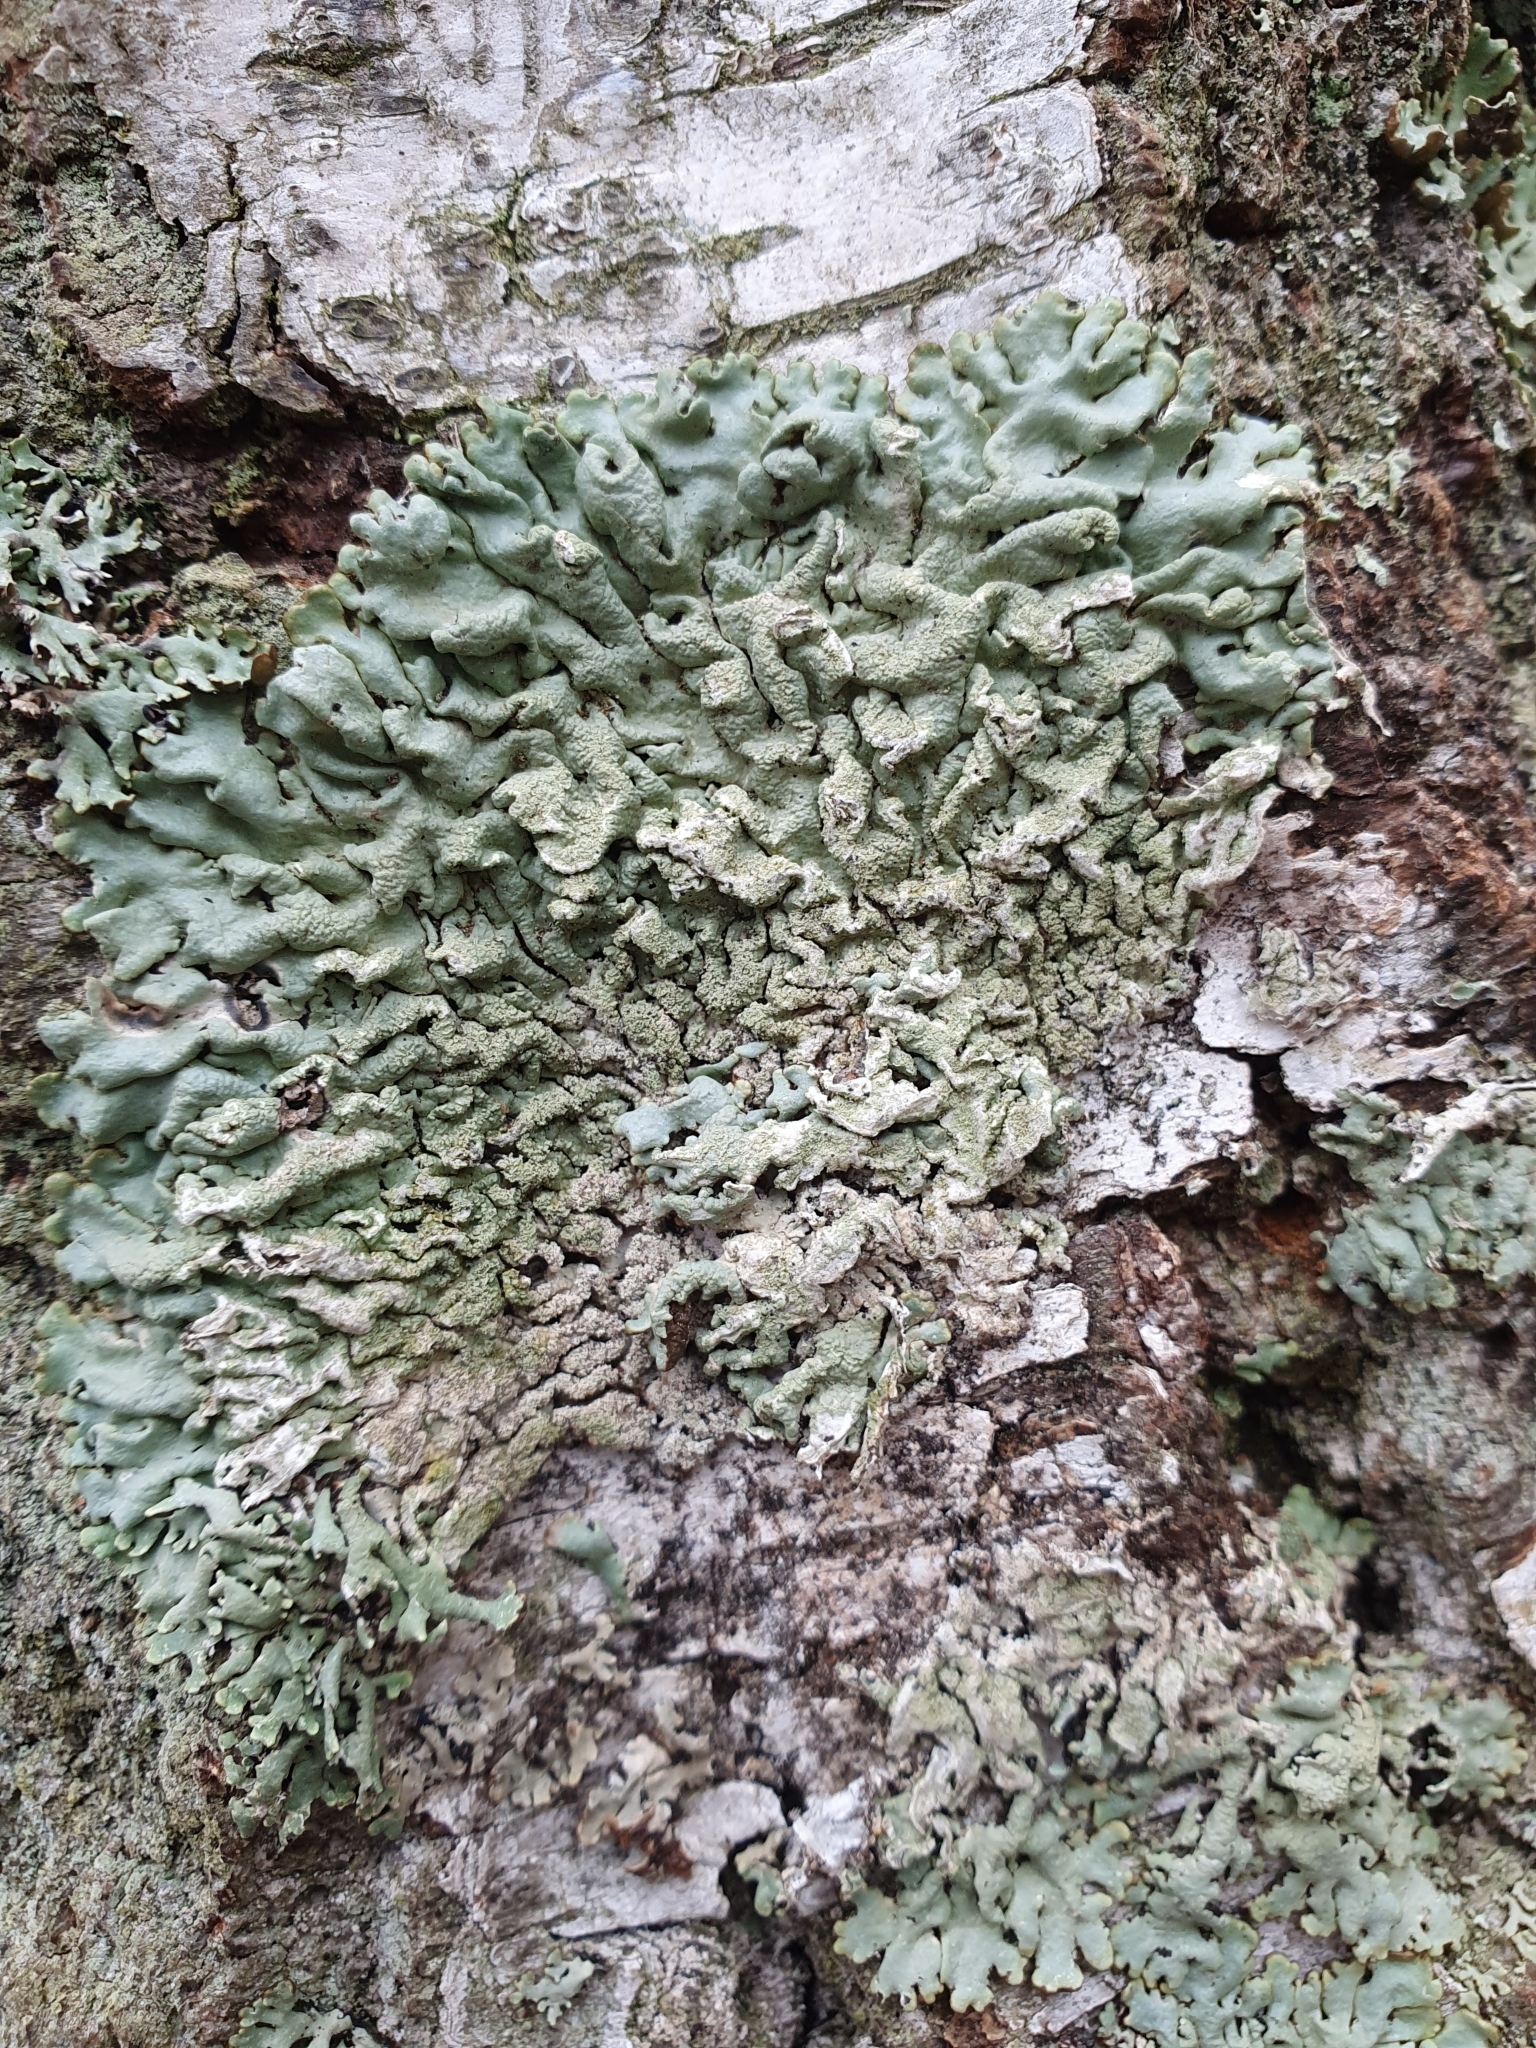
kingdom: Fungi
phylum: Ascomycota
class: Lecanoromycetes
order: Lecanorales
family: Parmeliaceae
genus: Hypogymnia
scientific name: Hypogymnia farinacea
